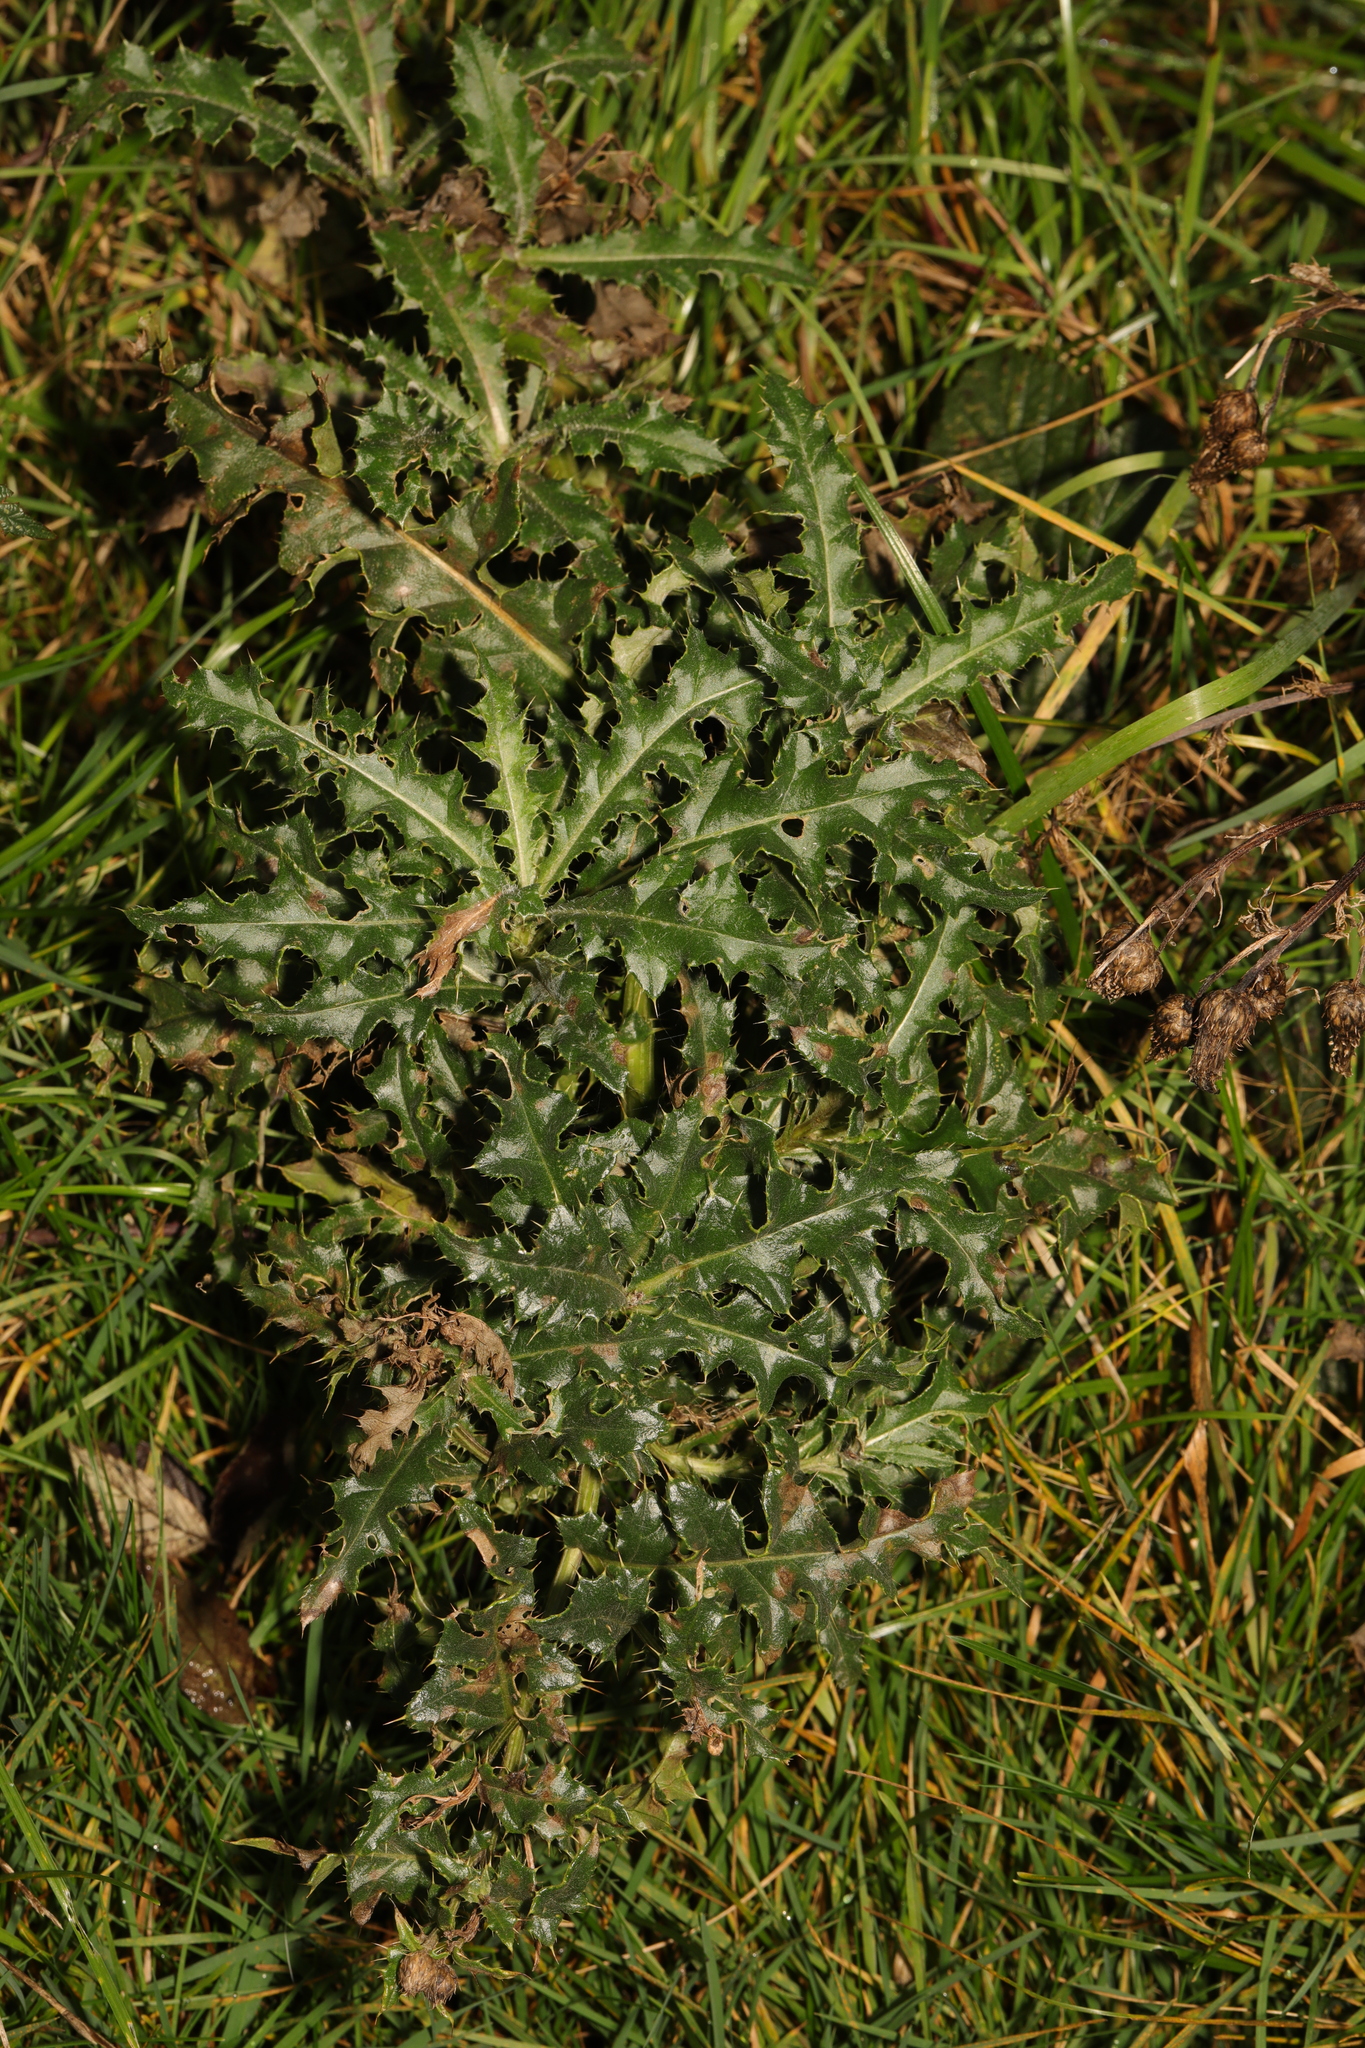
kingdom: Plantae
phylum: Tracheophyta
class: Magnoliopsida
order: Asterales
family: Asteraceae
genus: Cirsium
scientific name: Cirsium arvense
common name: Creeping thistle
